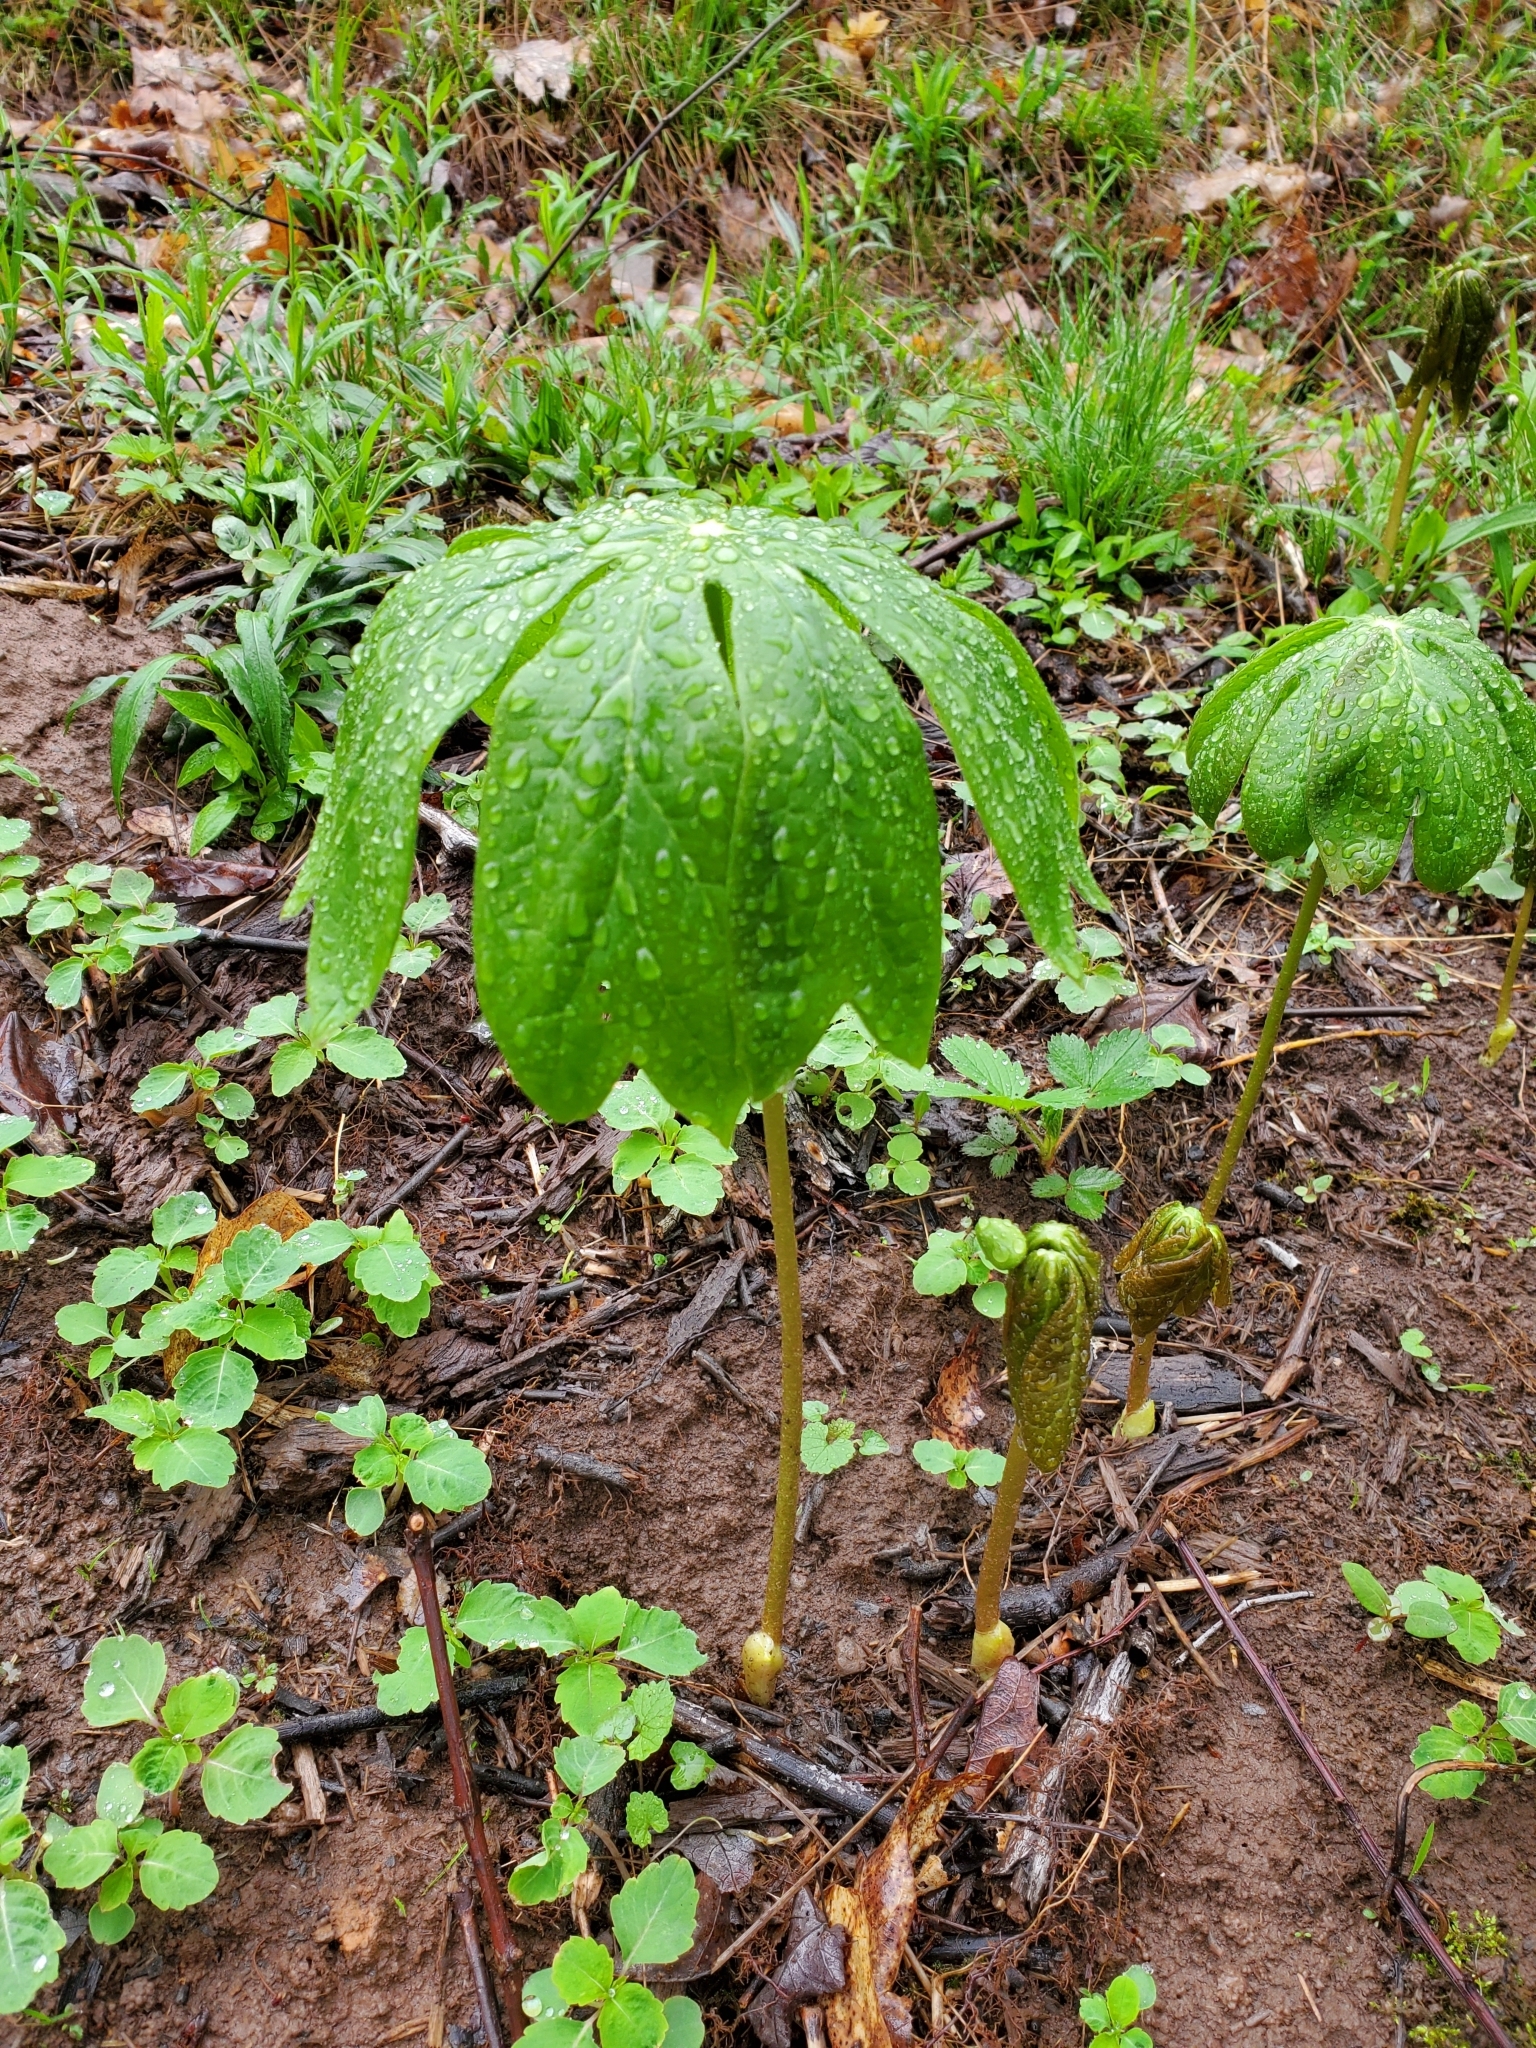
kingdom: Plantae
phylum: Tracheophyta
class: Magnoliopsida
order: Ranunculales
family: Berberidaceae
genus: Podophyllum
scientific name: Podophyllum peltatum
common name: Wild mandrake
